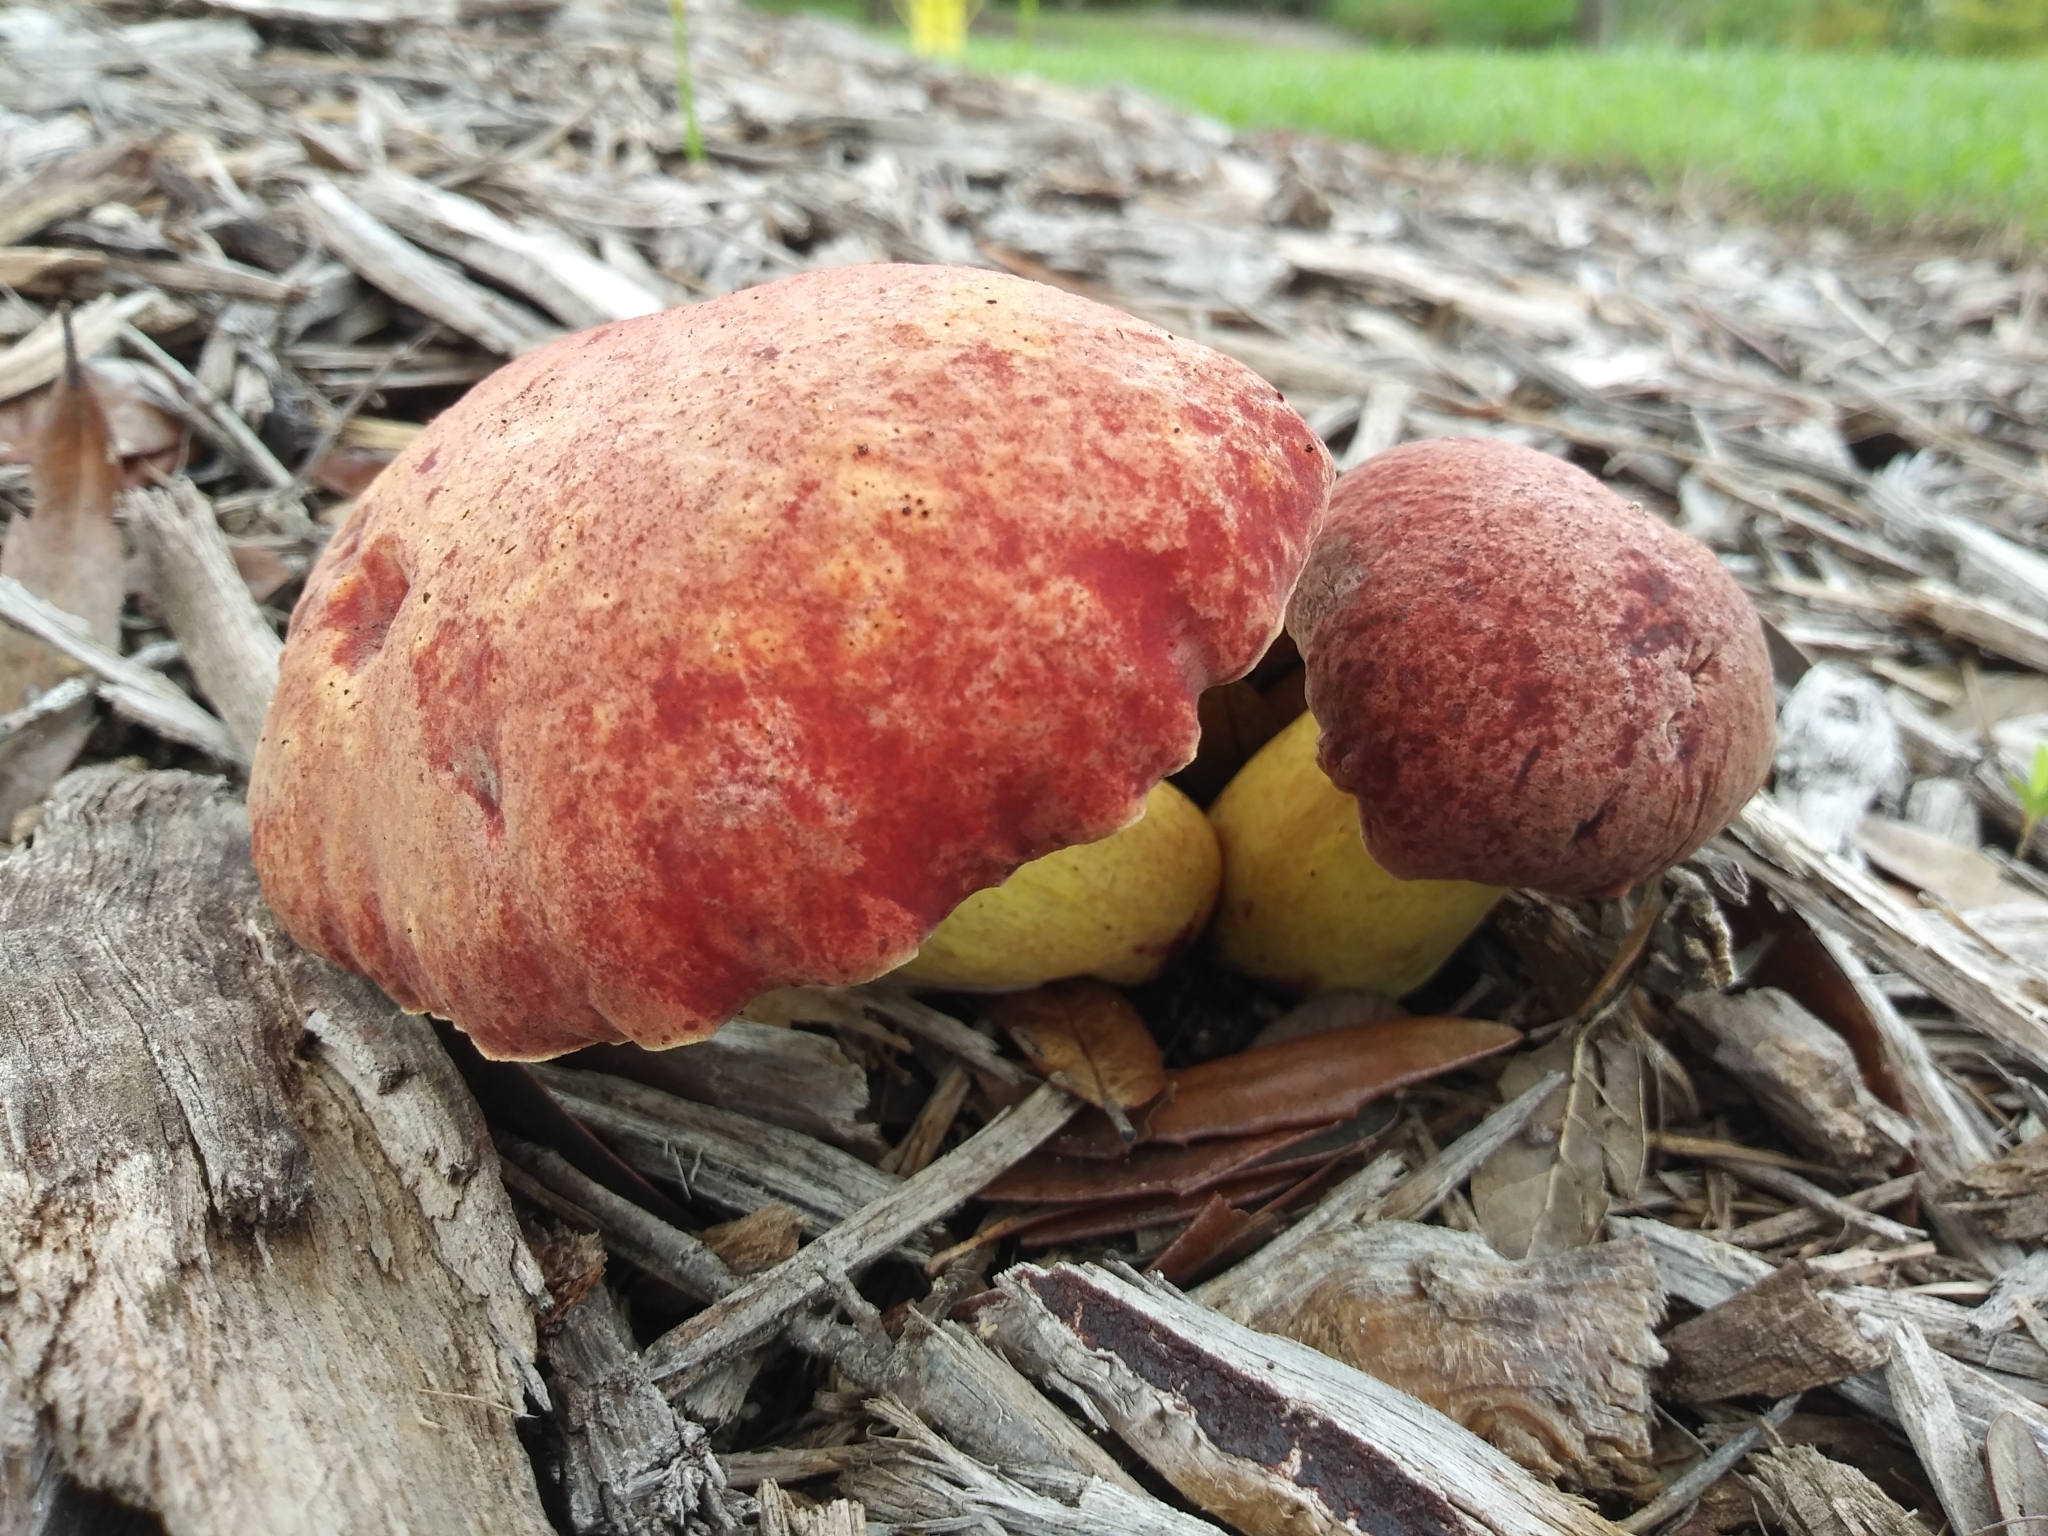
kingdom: Fungi
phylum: Basidiomycota
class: Agaricomycetes
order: Boletales
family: Boletaceae
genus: Boletus
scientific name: Boletus sensibilis
